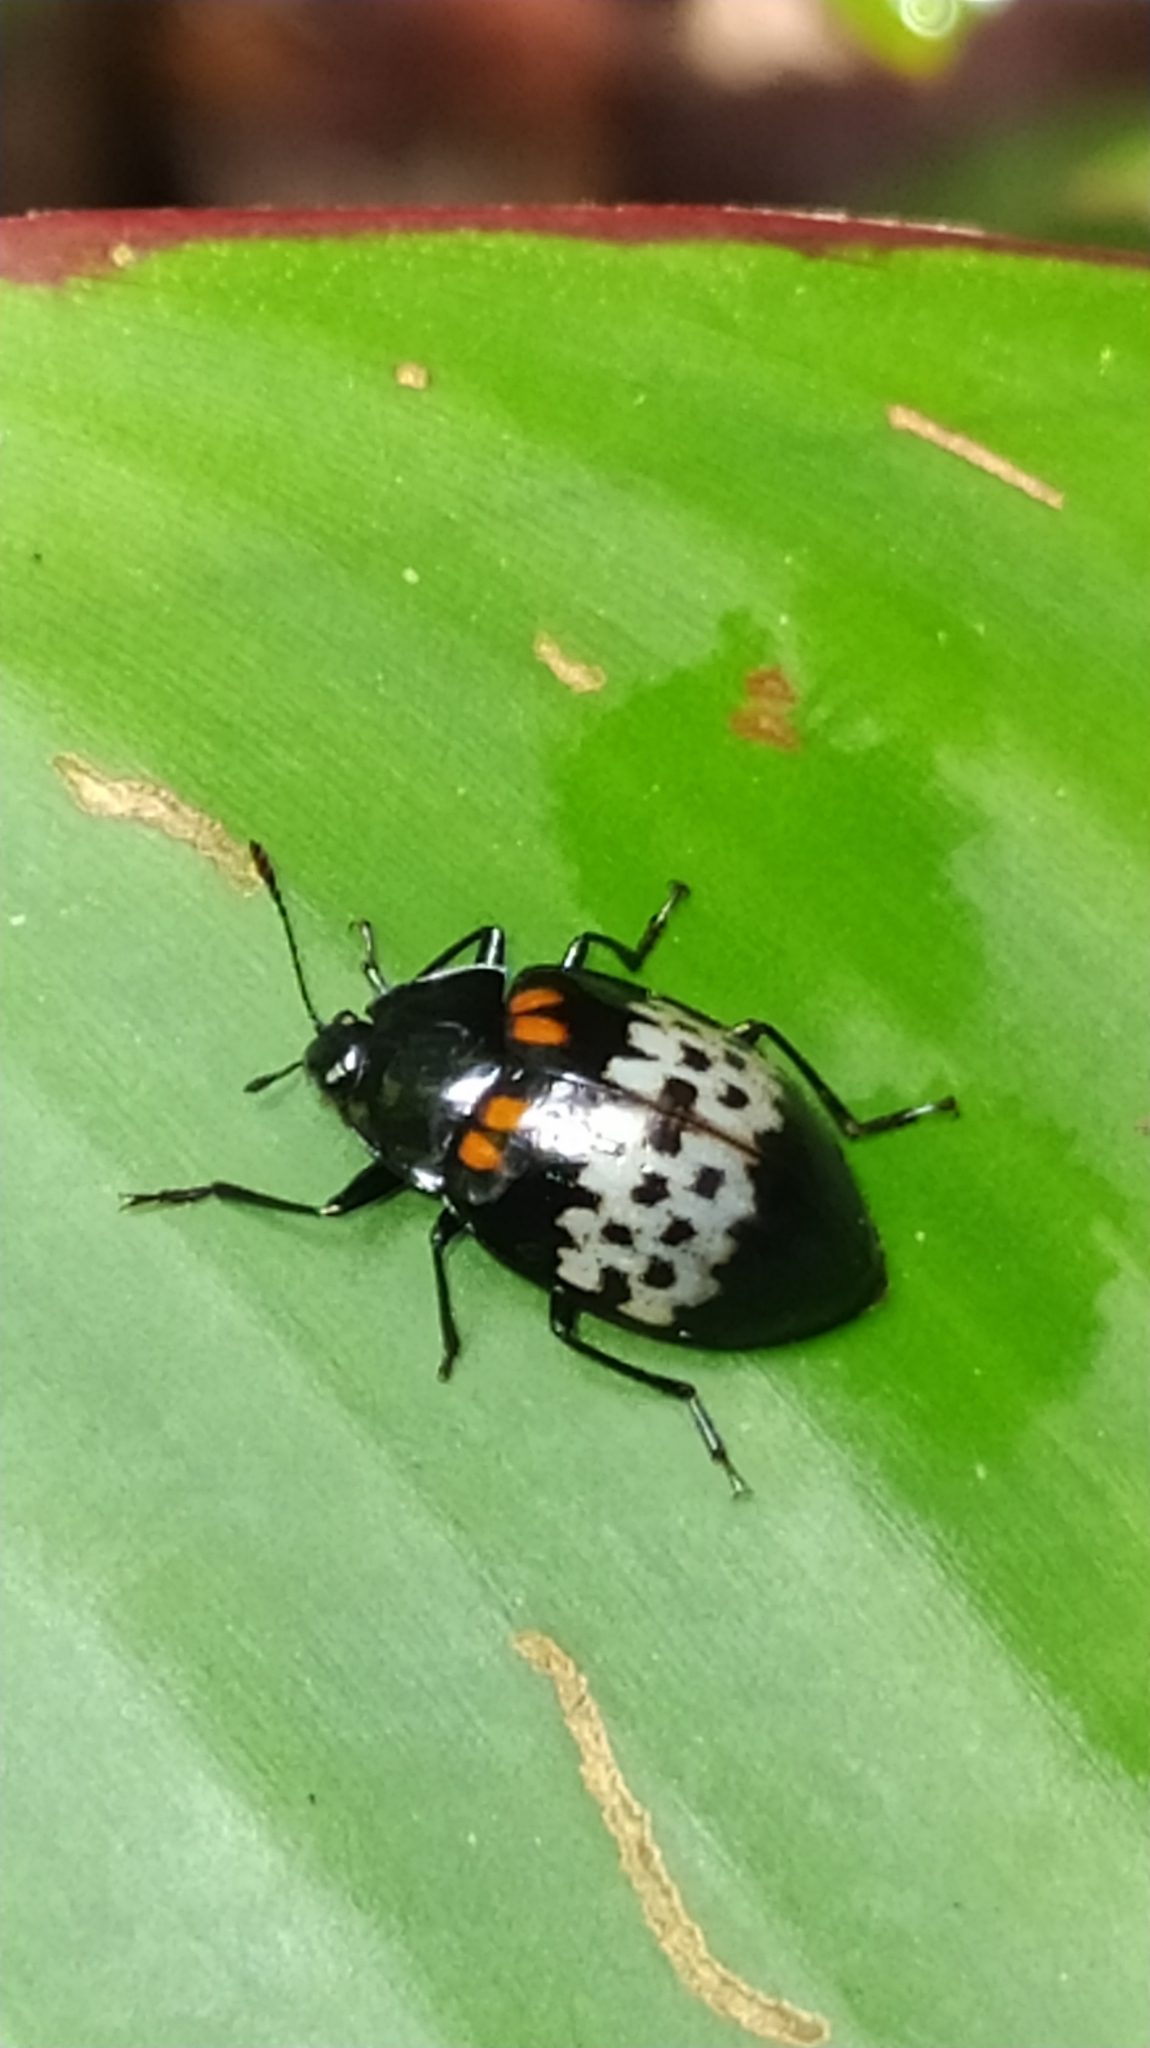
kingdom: Animalia
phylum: Arthropoda
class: Insecta
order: Coleoptera
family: Erotylidae
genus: Prepopharus
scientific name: Prepopharus
